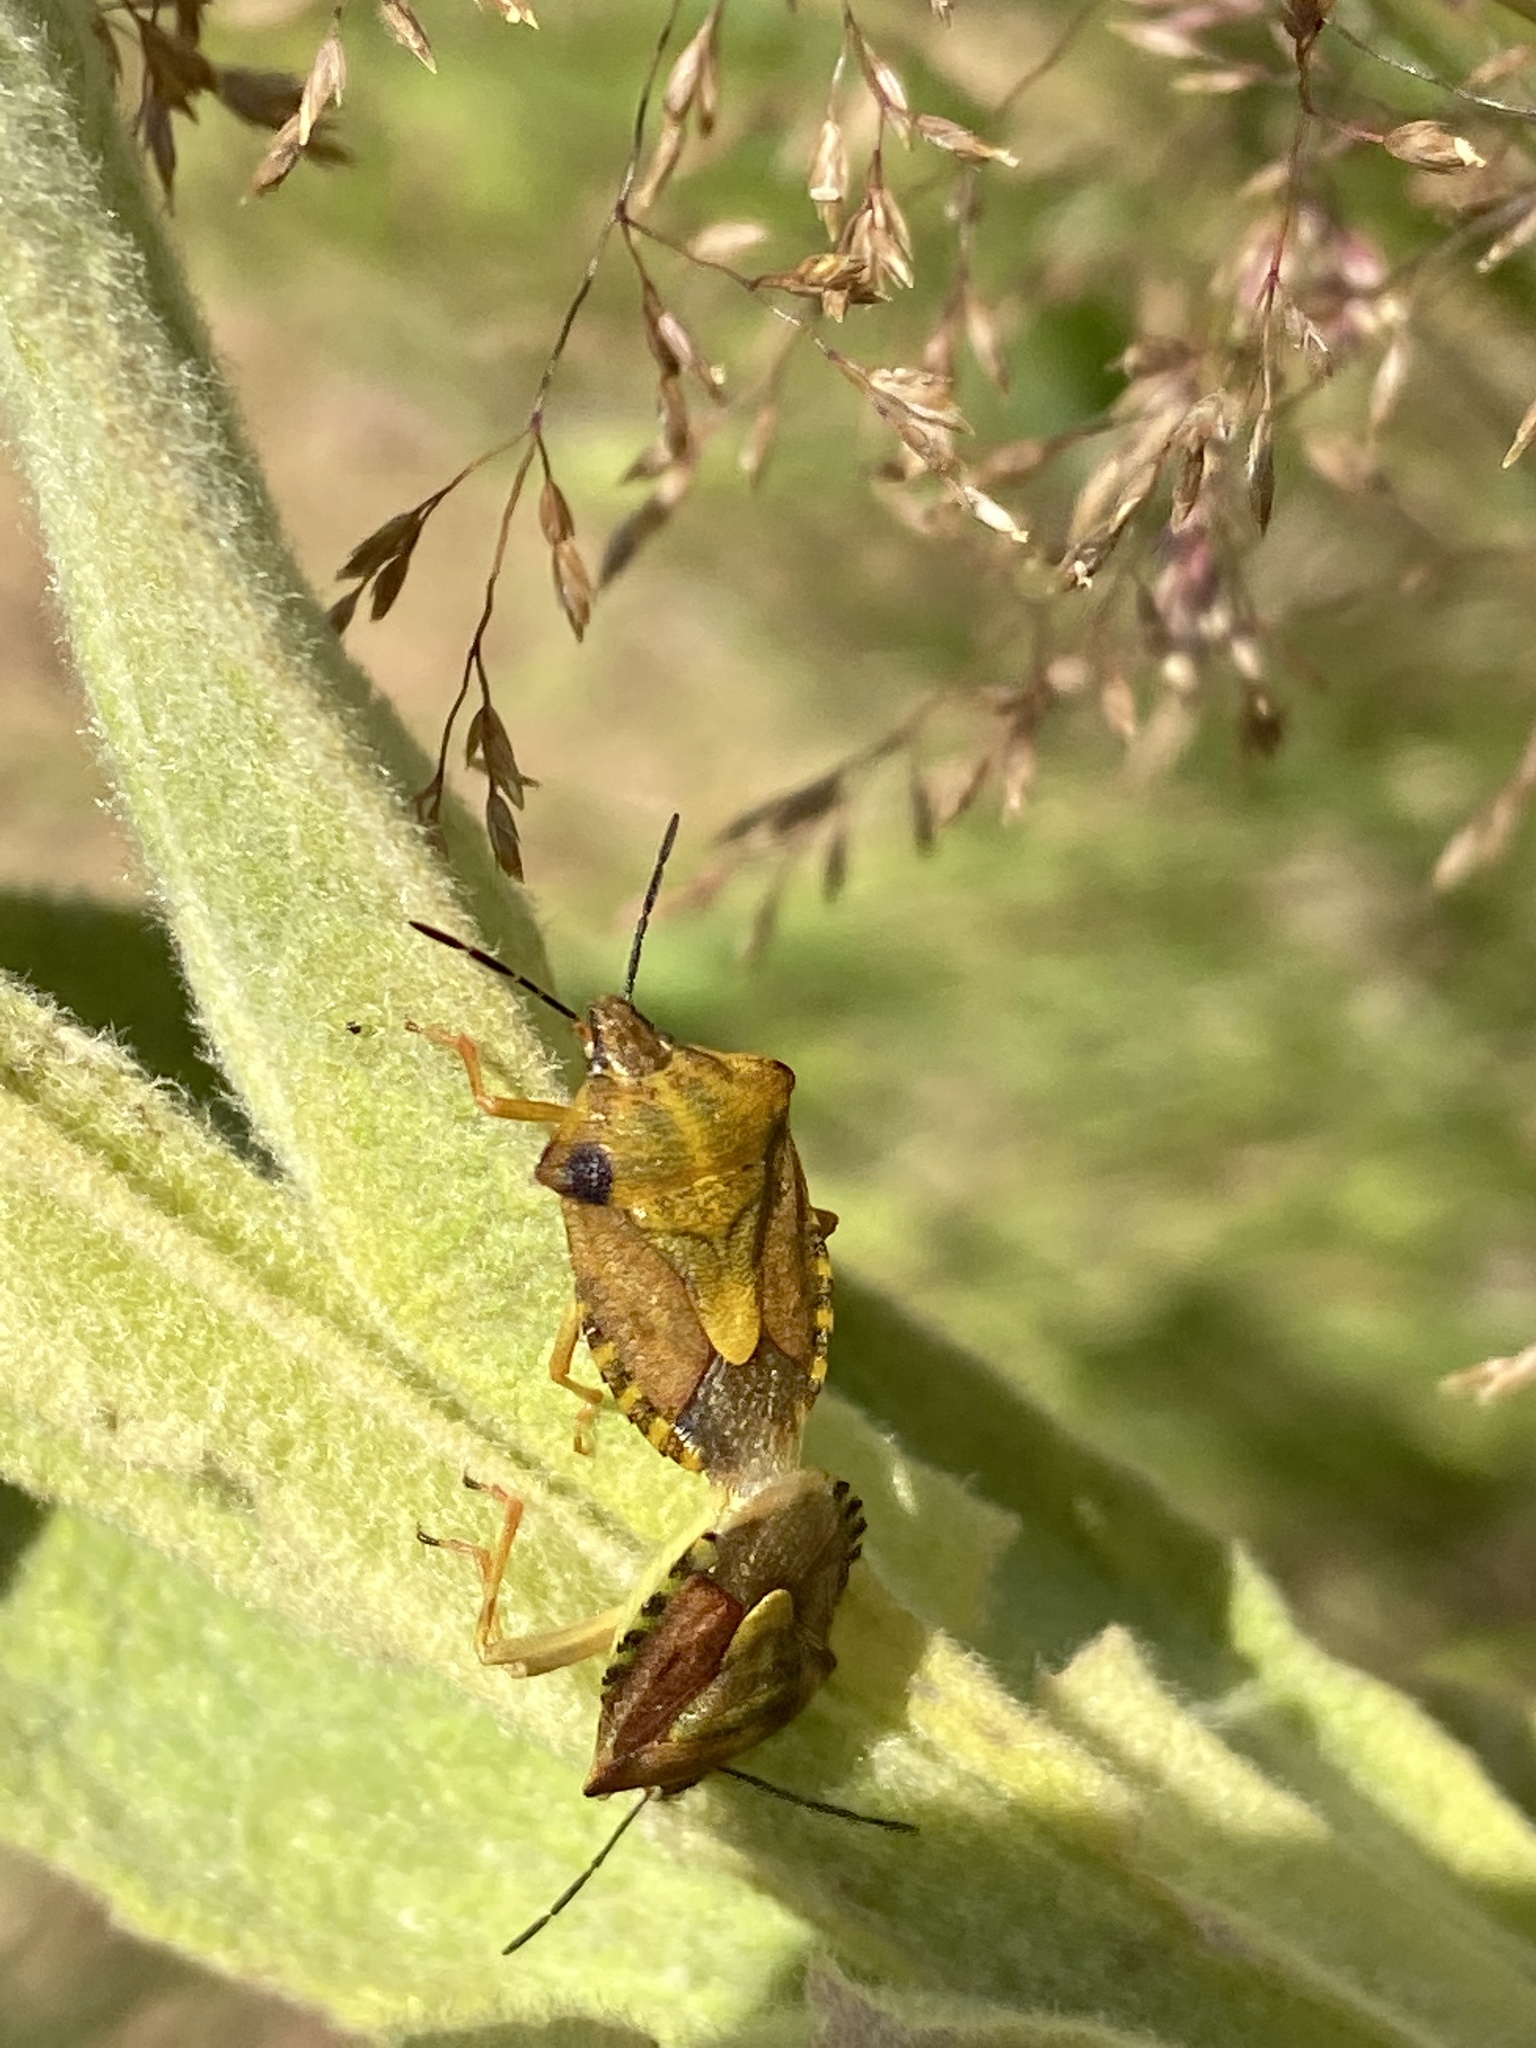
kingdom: Animalia
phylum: Arthropoda
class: Insecta
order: Hemiptera
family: Pentatomidae
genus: Carpocoris
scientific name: Carpocoris purpureipennis
